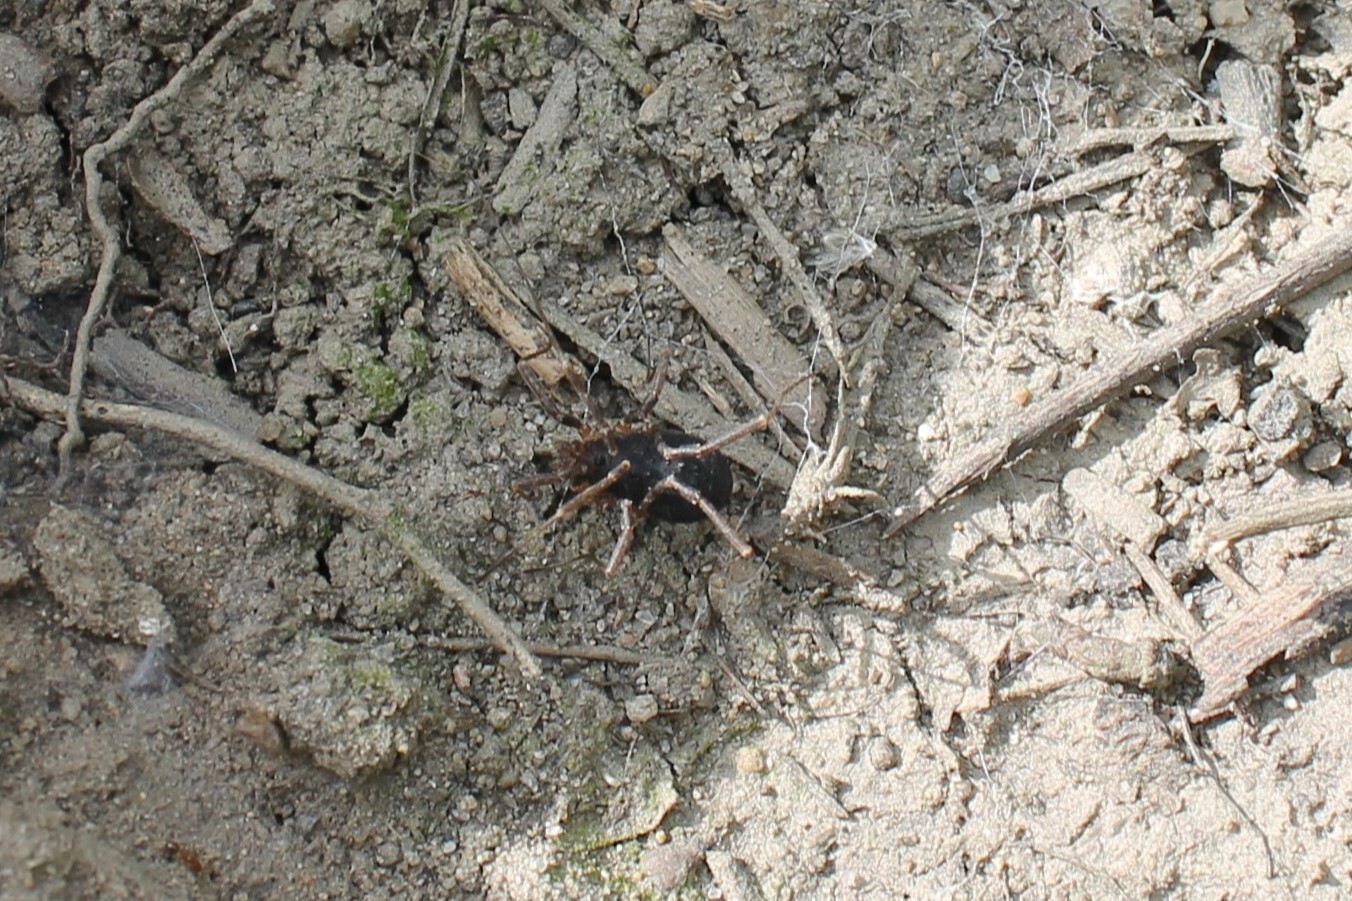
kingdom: Animalia
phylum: Arthropoda
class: Arachnida
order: Opiliones
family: Protolophidae
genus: Protolophus
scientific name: Protolophus singularis
